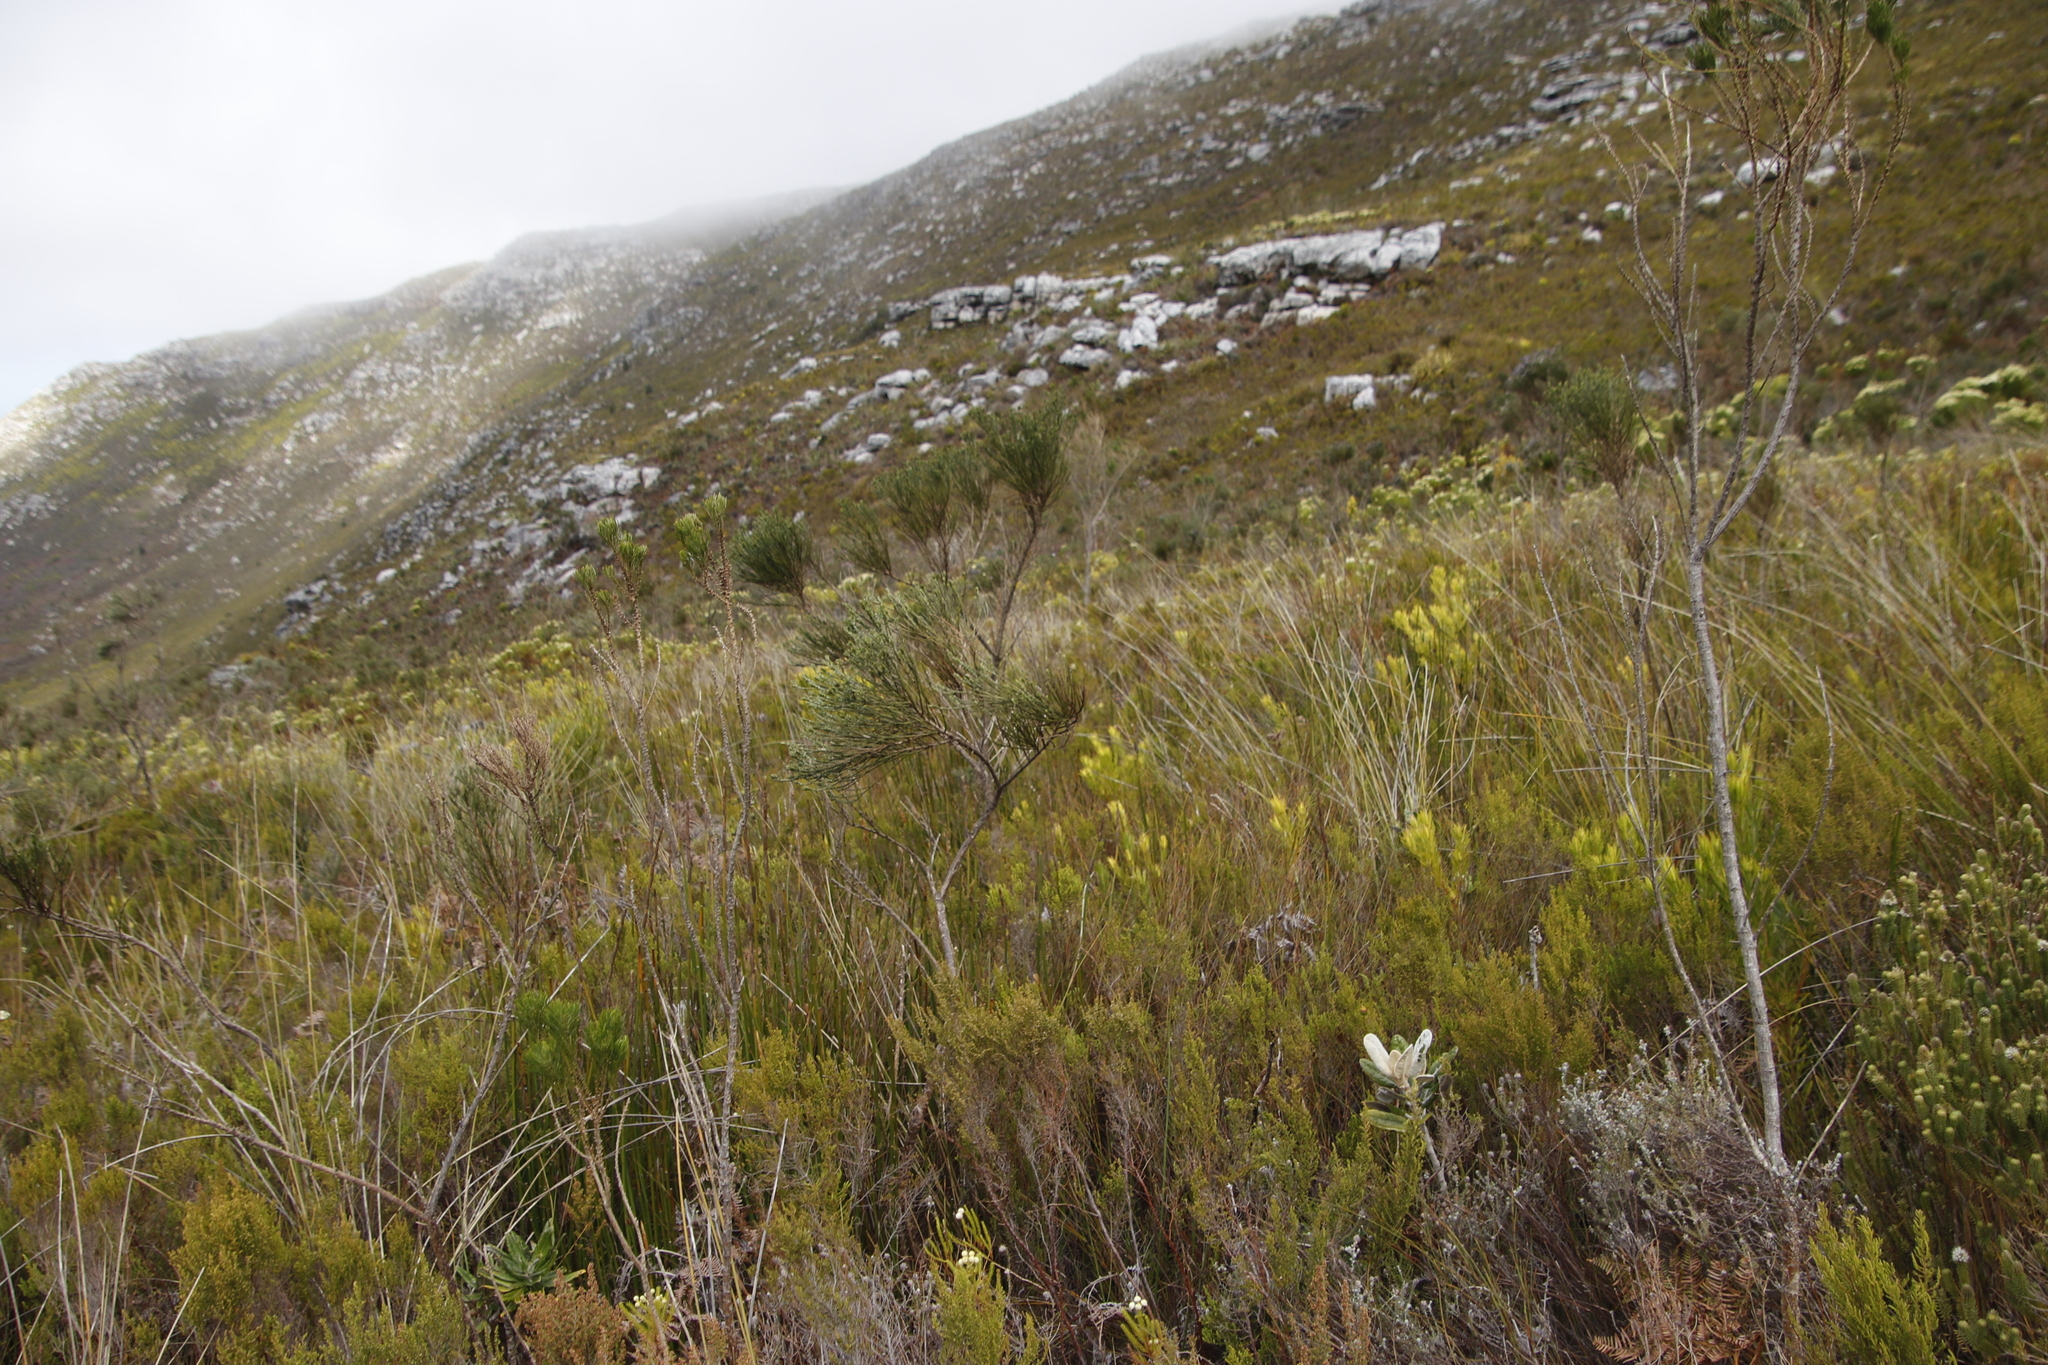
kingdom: Plantae
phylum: Tracheophyta
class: Magnoliopsida
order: Fabales
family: Fabaceae
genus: Psoralea
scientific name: Psoralea congesta
